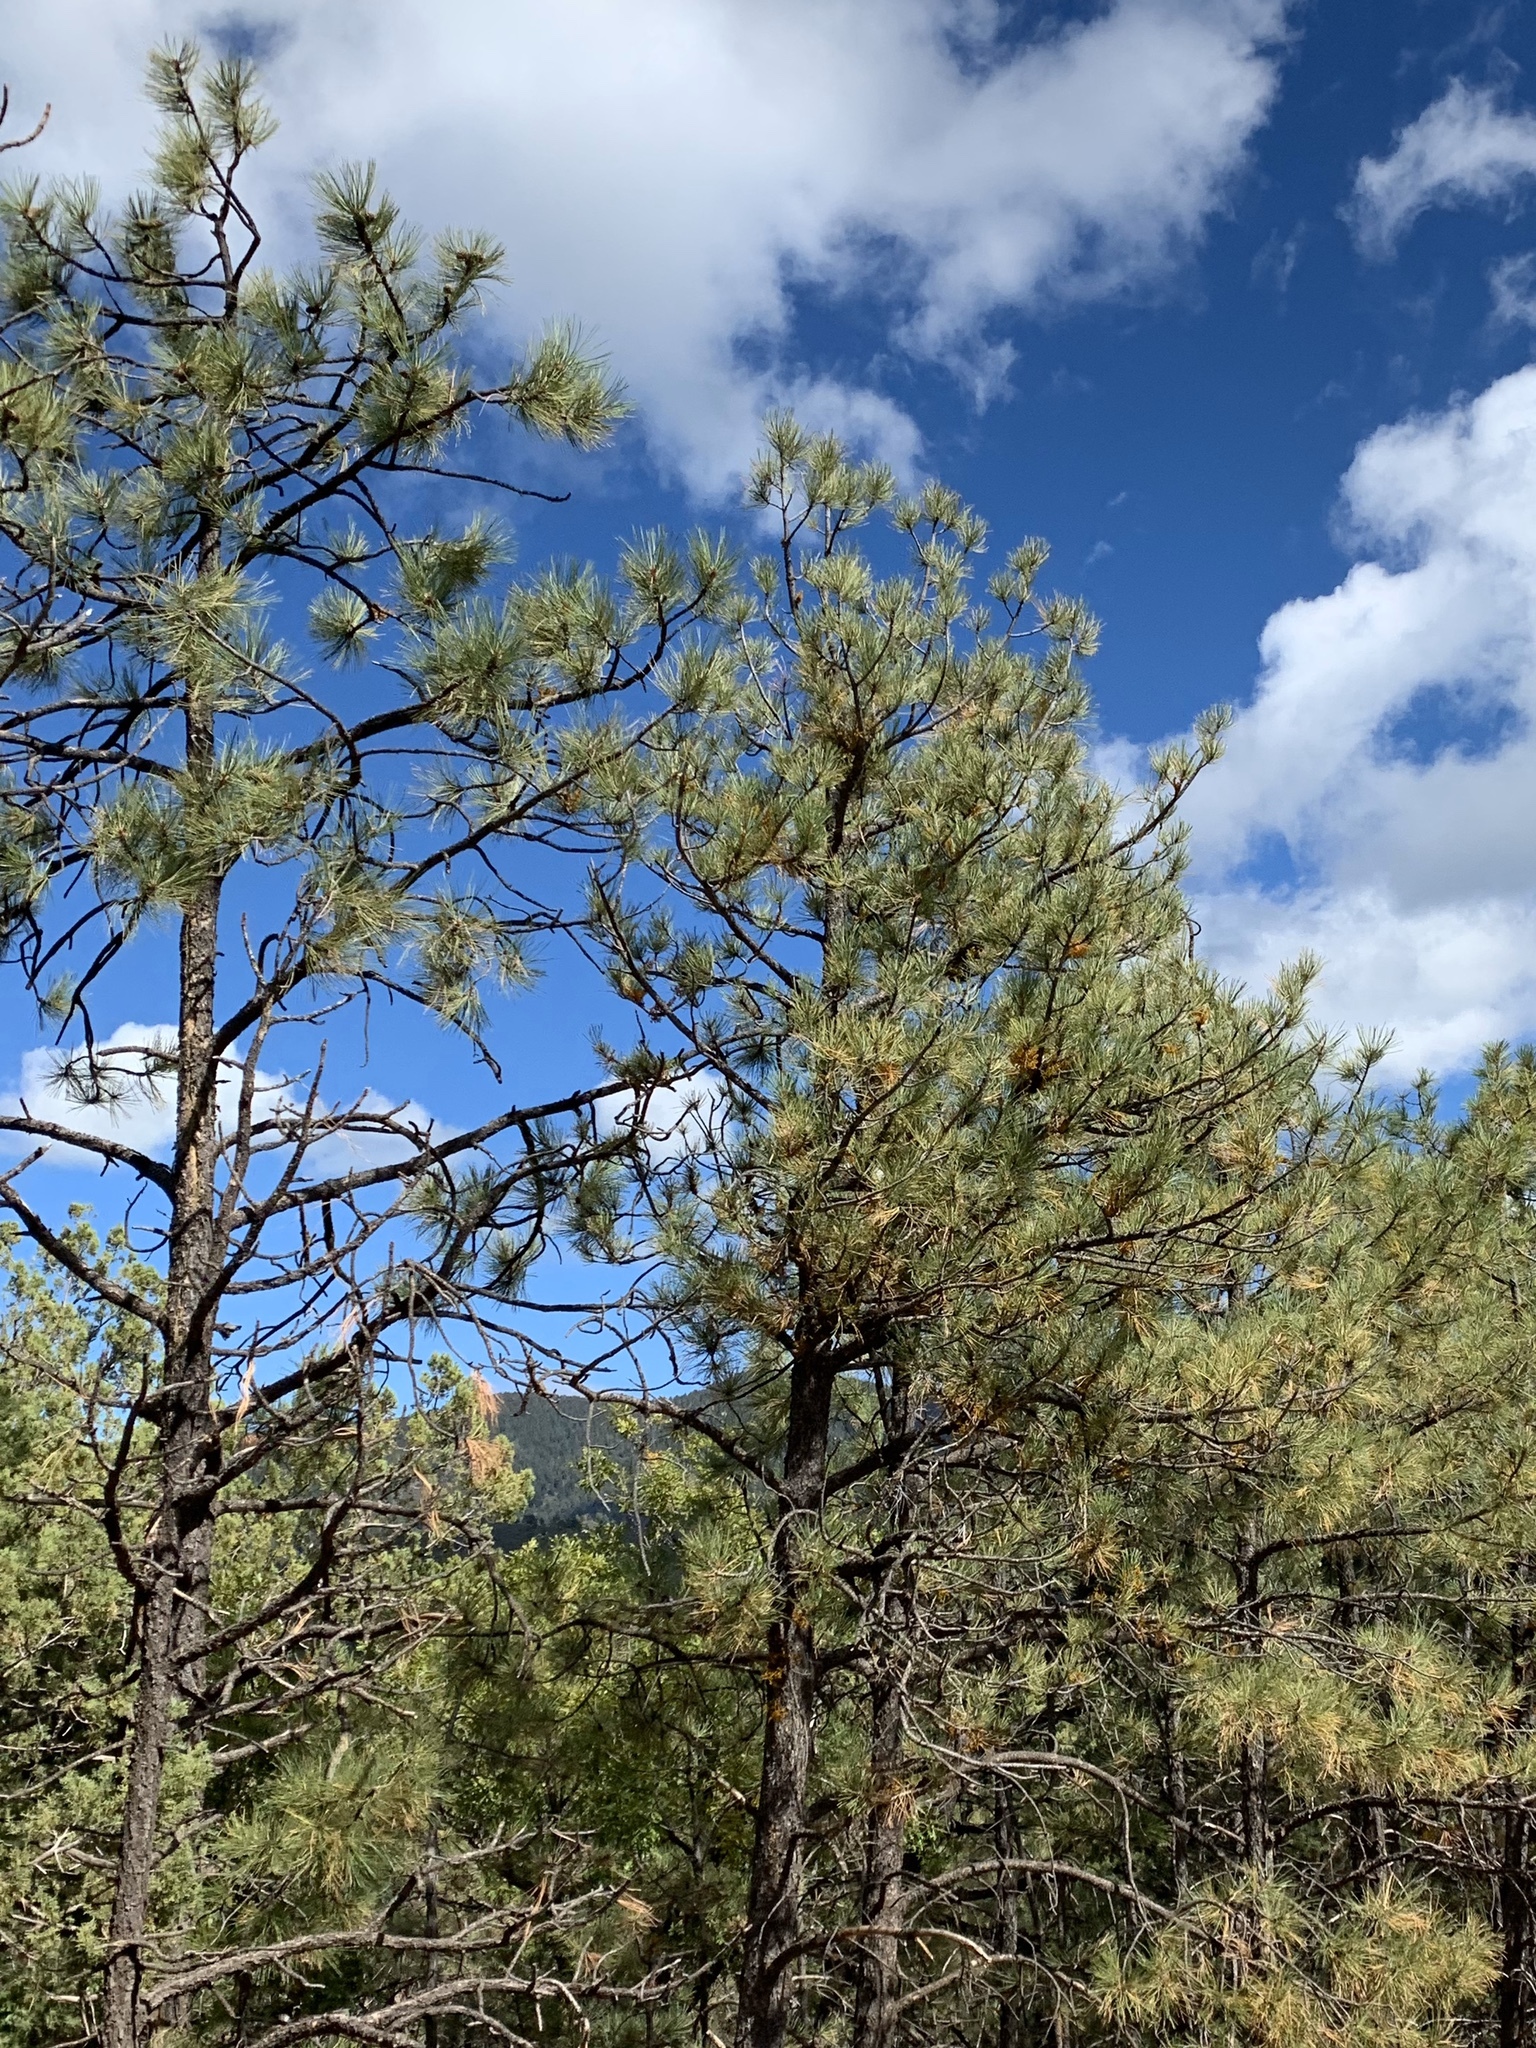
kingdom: Plantae
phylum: Tracheophyta
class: Pinopsida
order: Pinales
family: Pinaceae
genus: Pinus
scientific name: Pinus ponderosa
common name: Western yellow-pine
